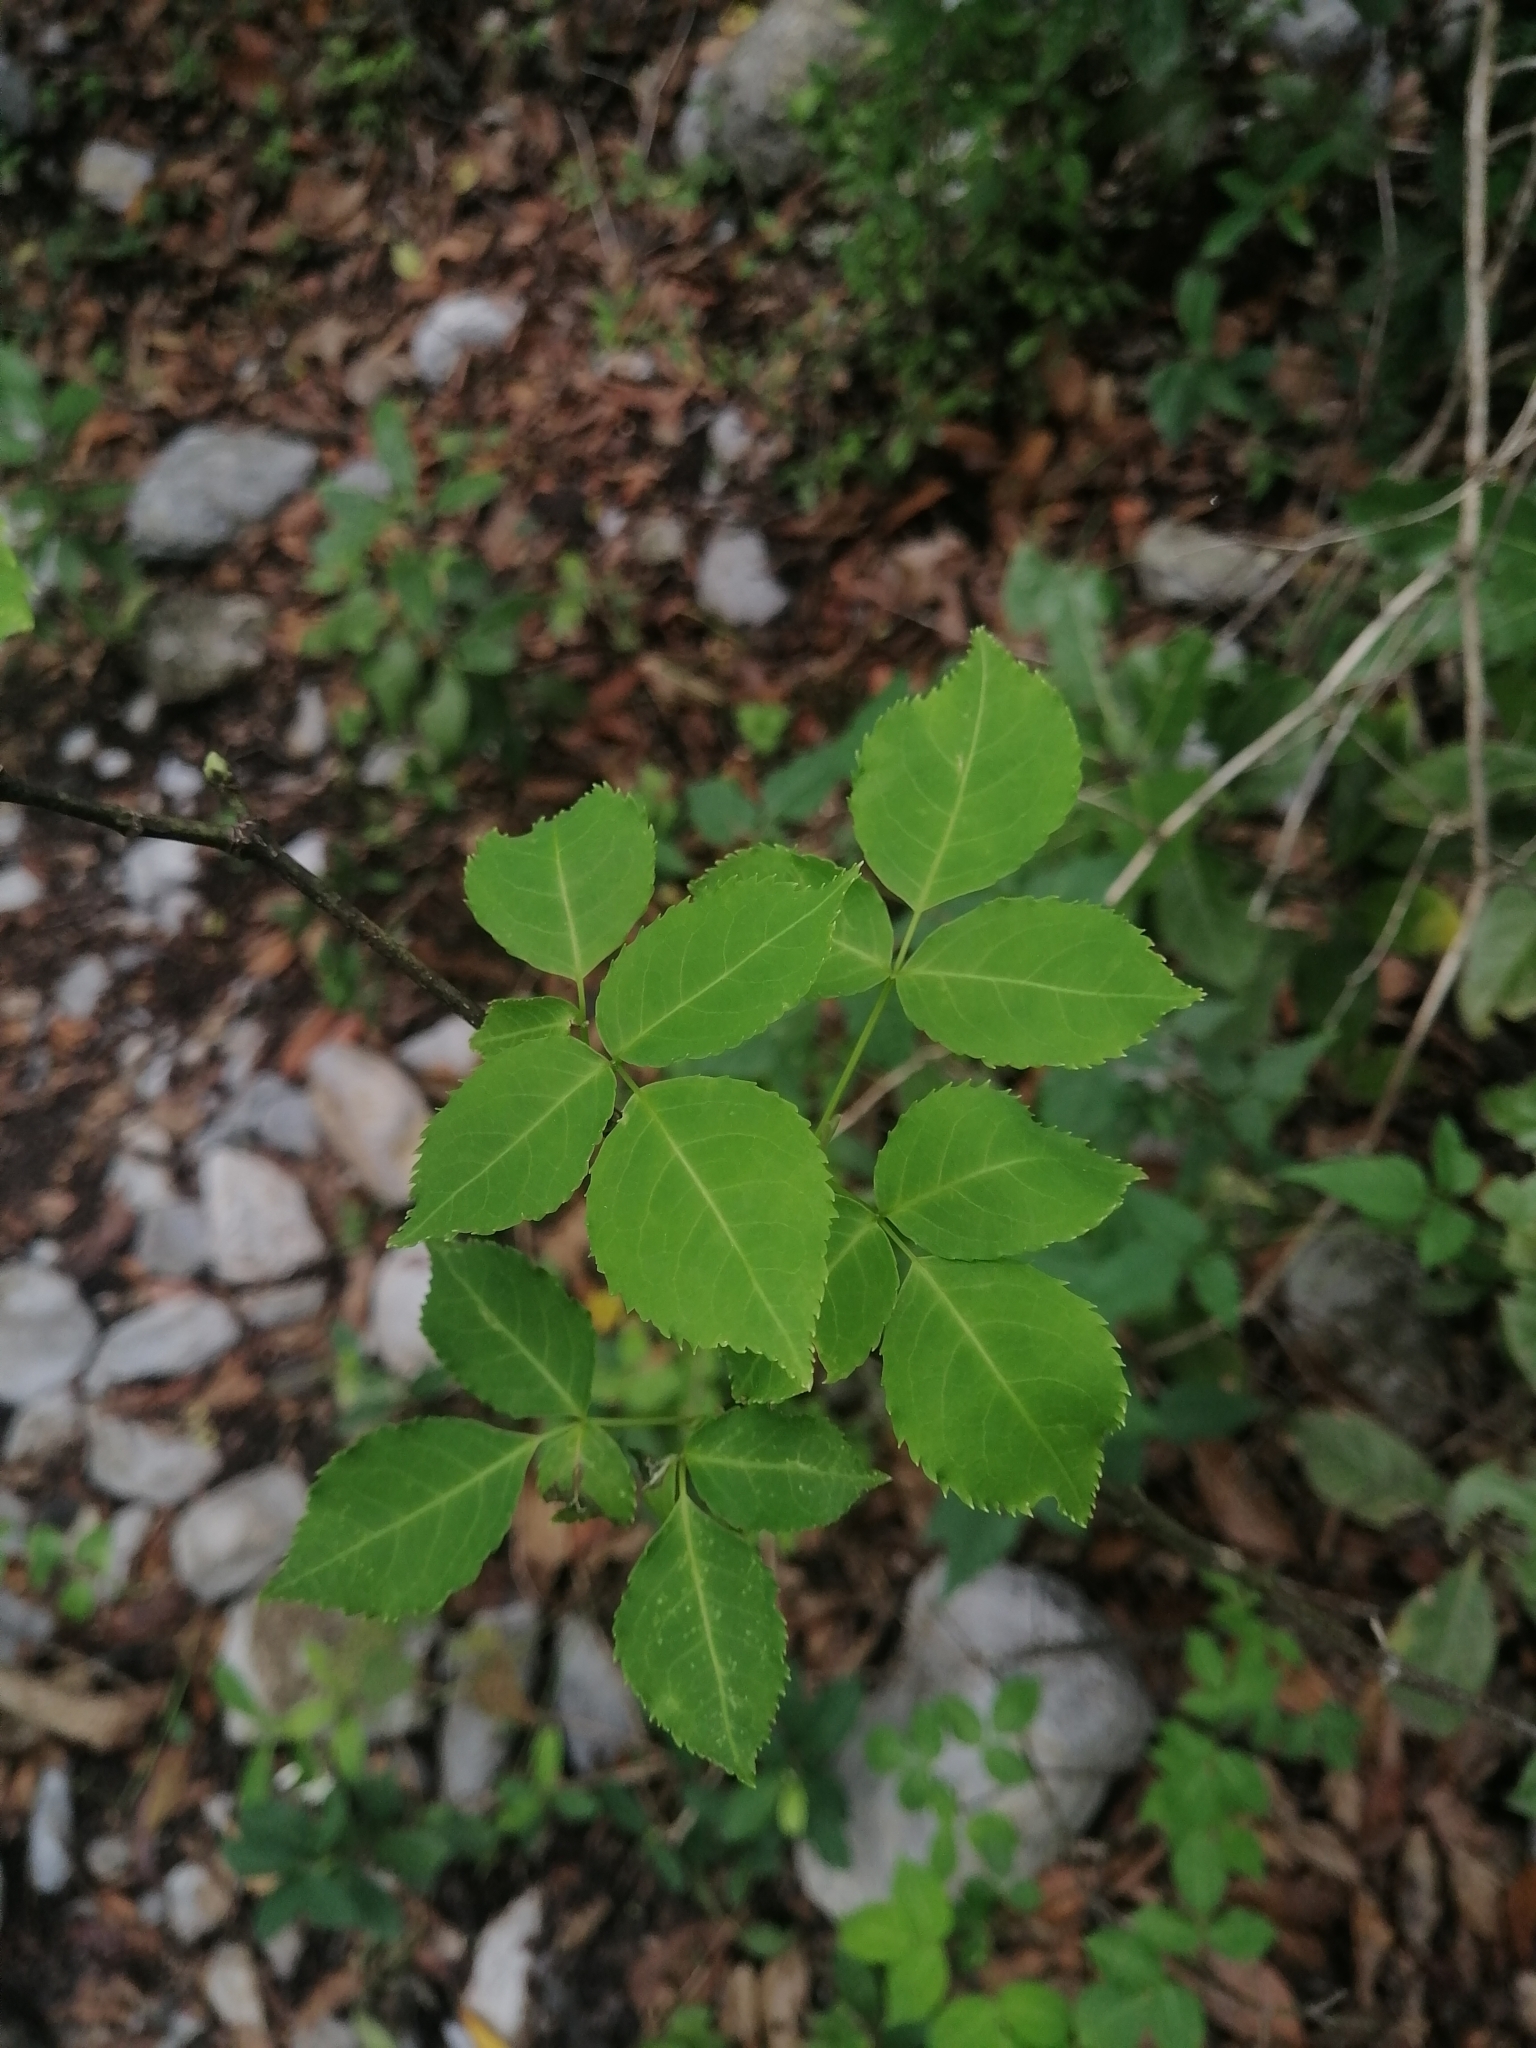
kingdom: Plantae
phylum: Tracheophyta
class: Magnoliopsida
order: Crossosomatales
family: Staphyleaceae
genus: Staphylea
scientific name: Staphylea pringlei
